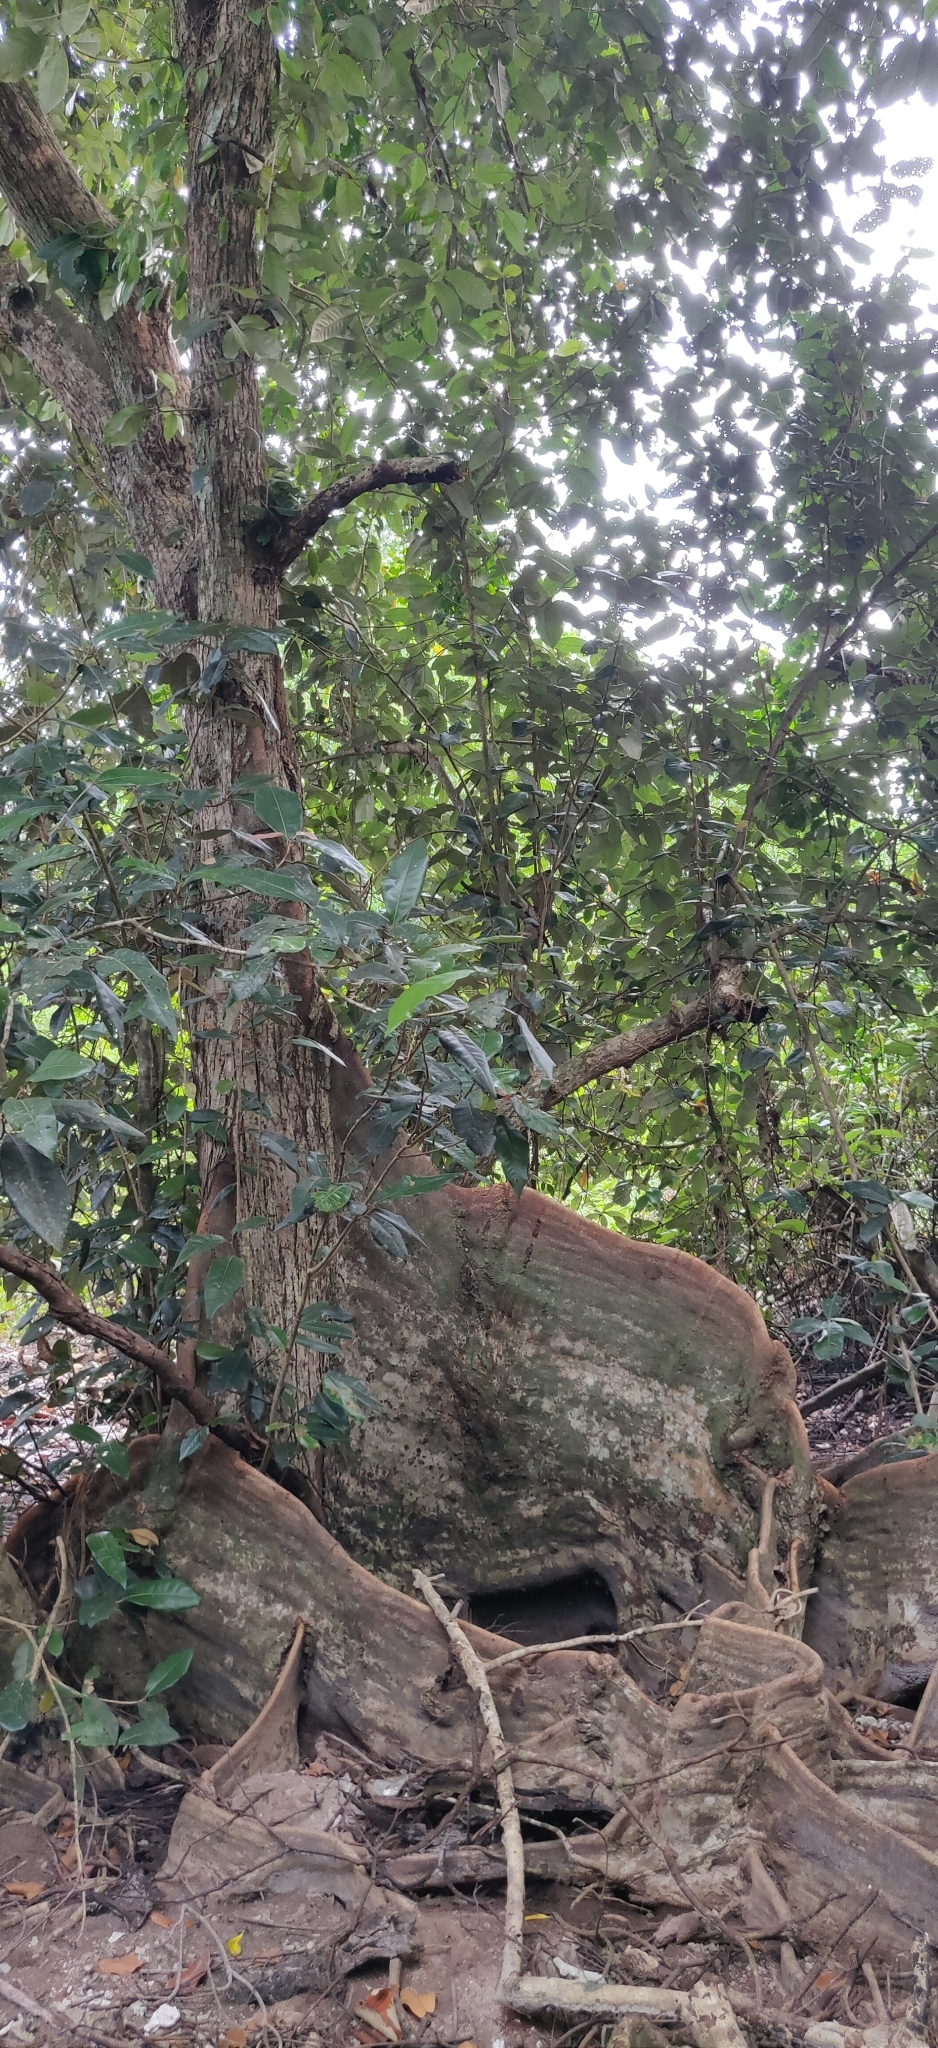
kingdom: Plantae
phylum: Tracheophyta
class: Magnoliopsida
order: Malvales
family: Malvaceae
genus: Heritiera
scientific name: Heritiera littoralis
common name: Looking-glass mangrove
